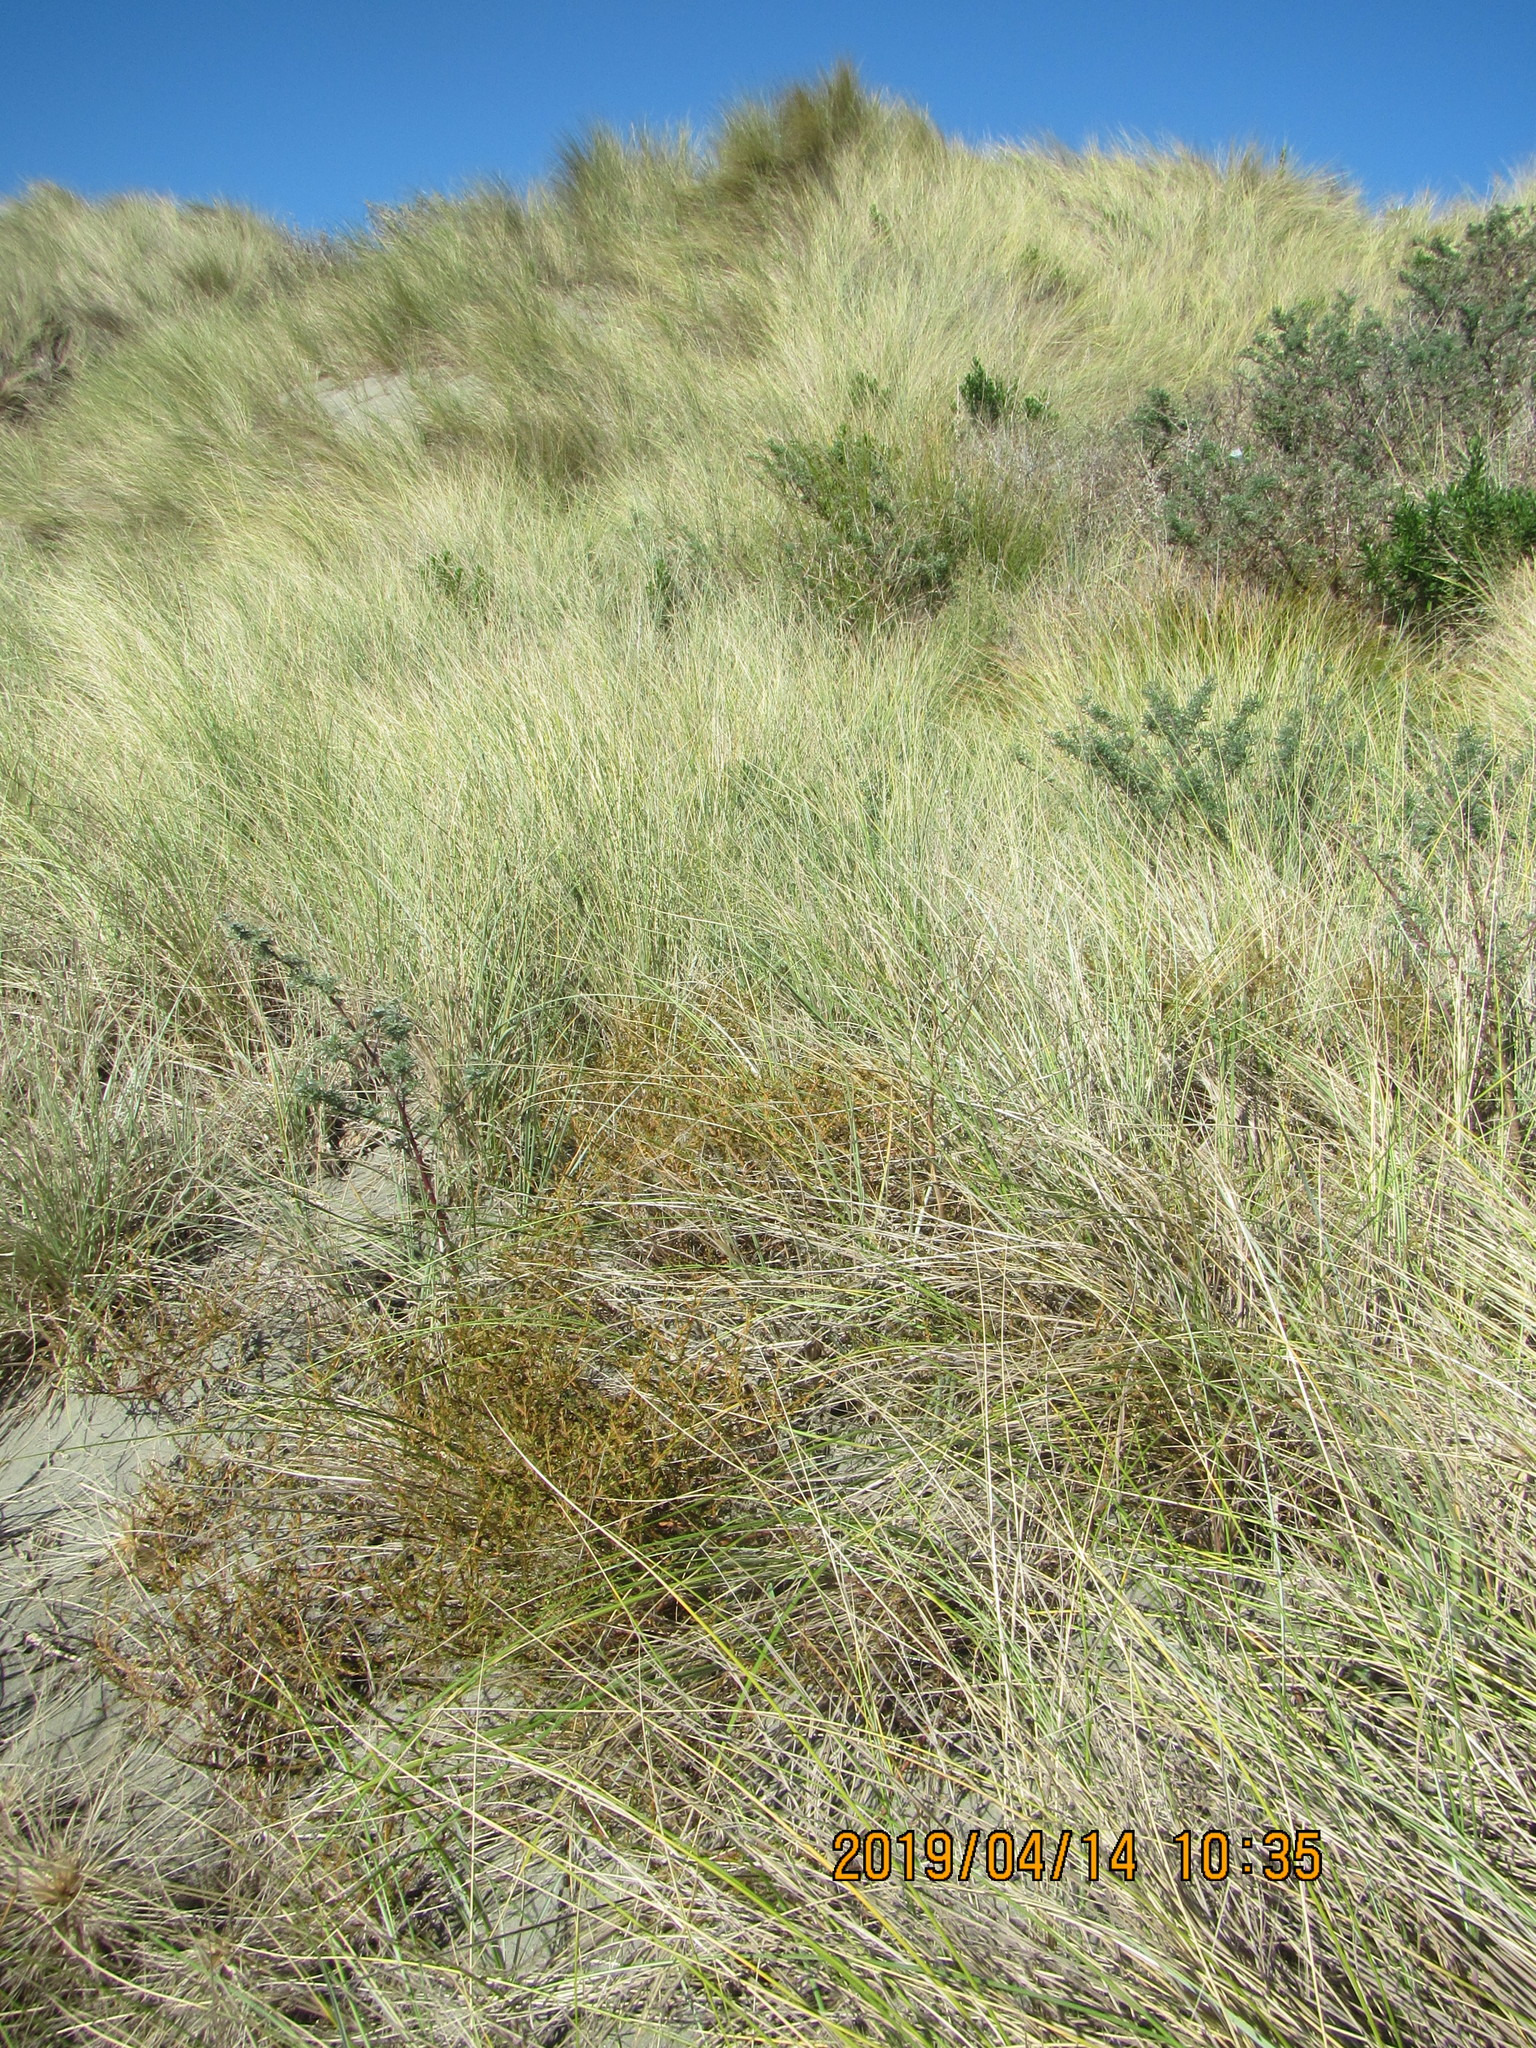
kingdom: Plantae
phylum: Tracheophyta
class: Magnoliopsida
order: Gentianales
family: Rubiaceae
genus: Coprosma
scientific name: Coprosma acerosa
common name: Sand coprosma
